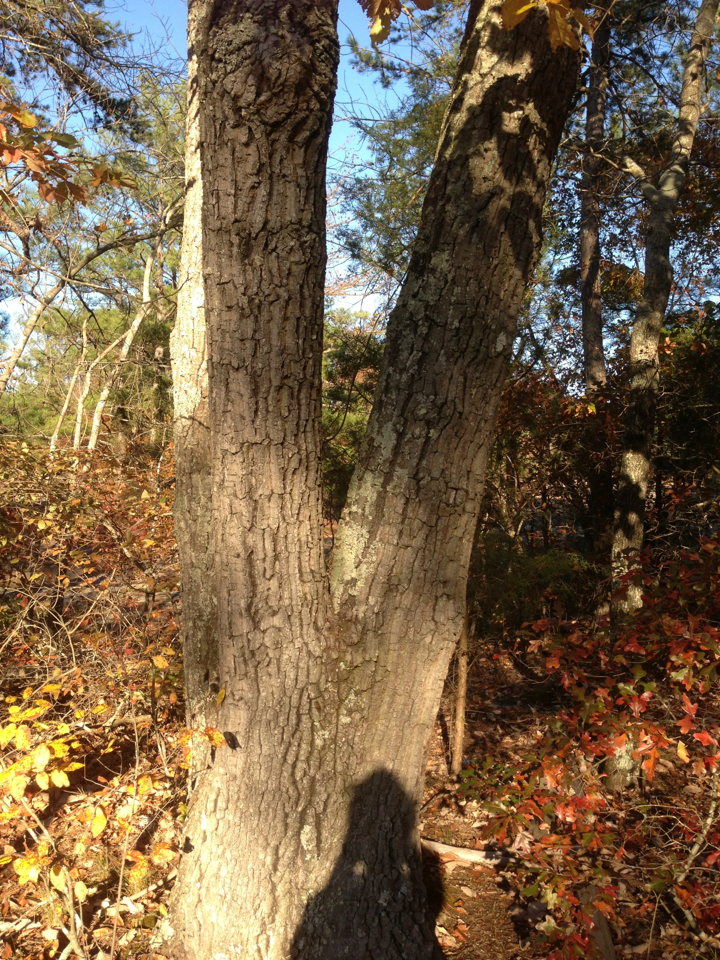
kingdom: Plantae
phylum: Tracheophyta
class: Magnoliopsida
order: Fagales
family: Fagaceae
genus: Quercus
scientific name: Quercus montana
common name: Chestnut oak
